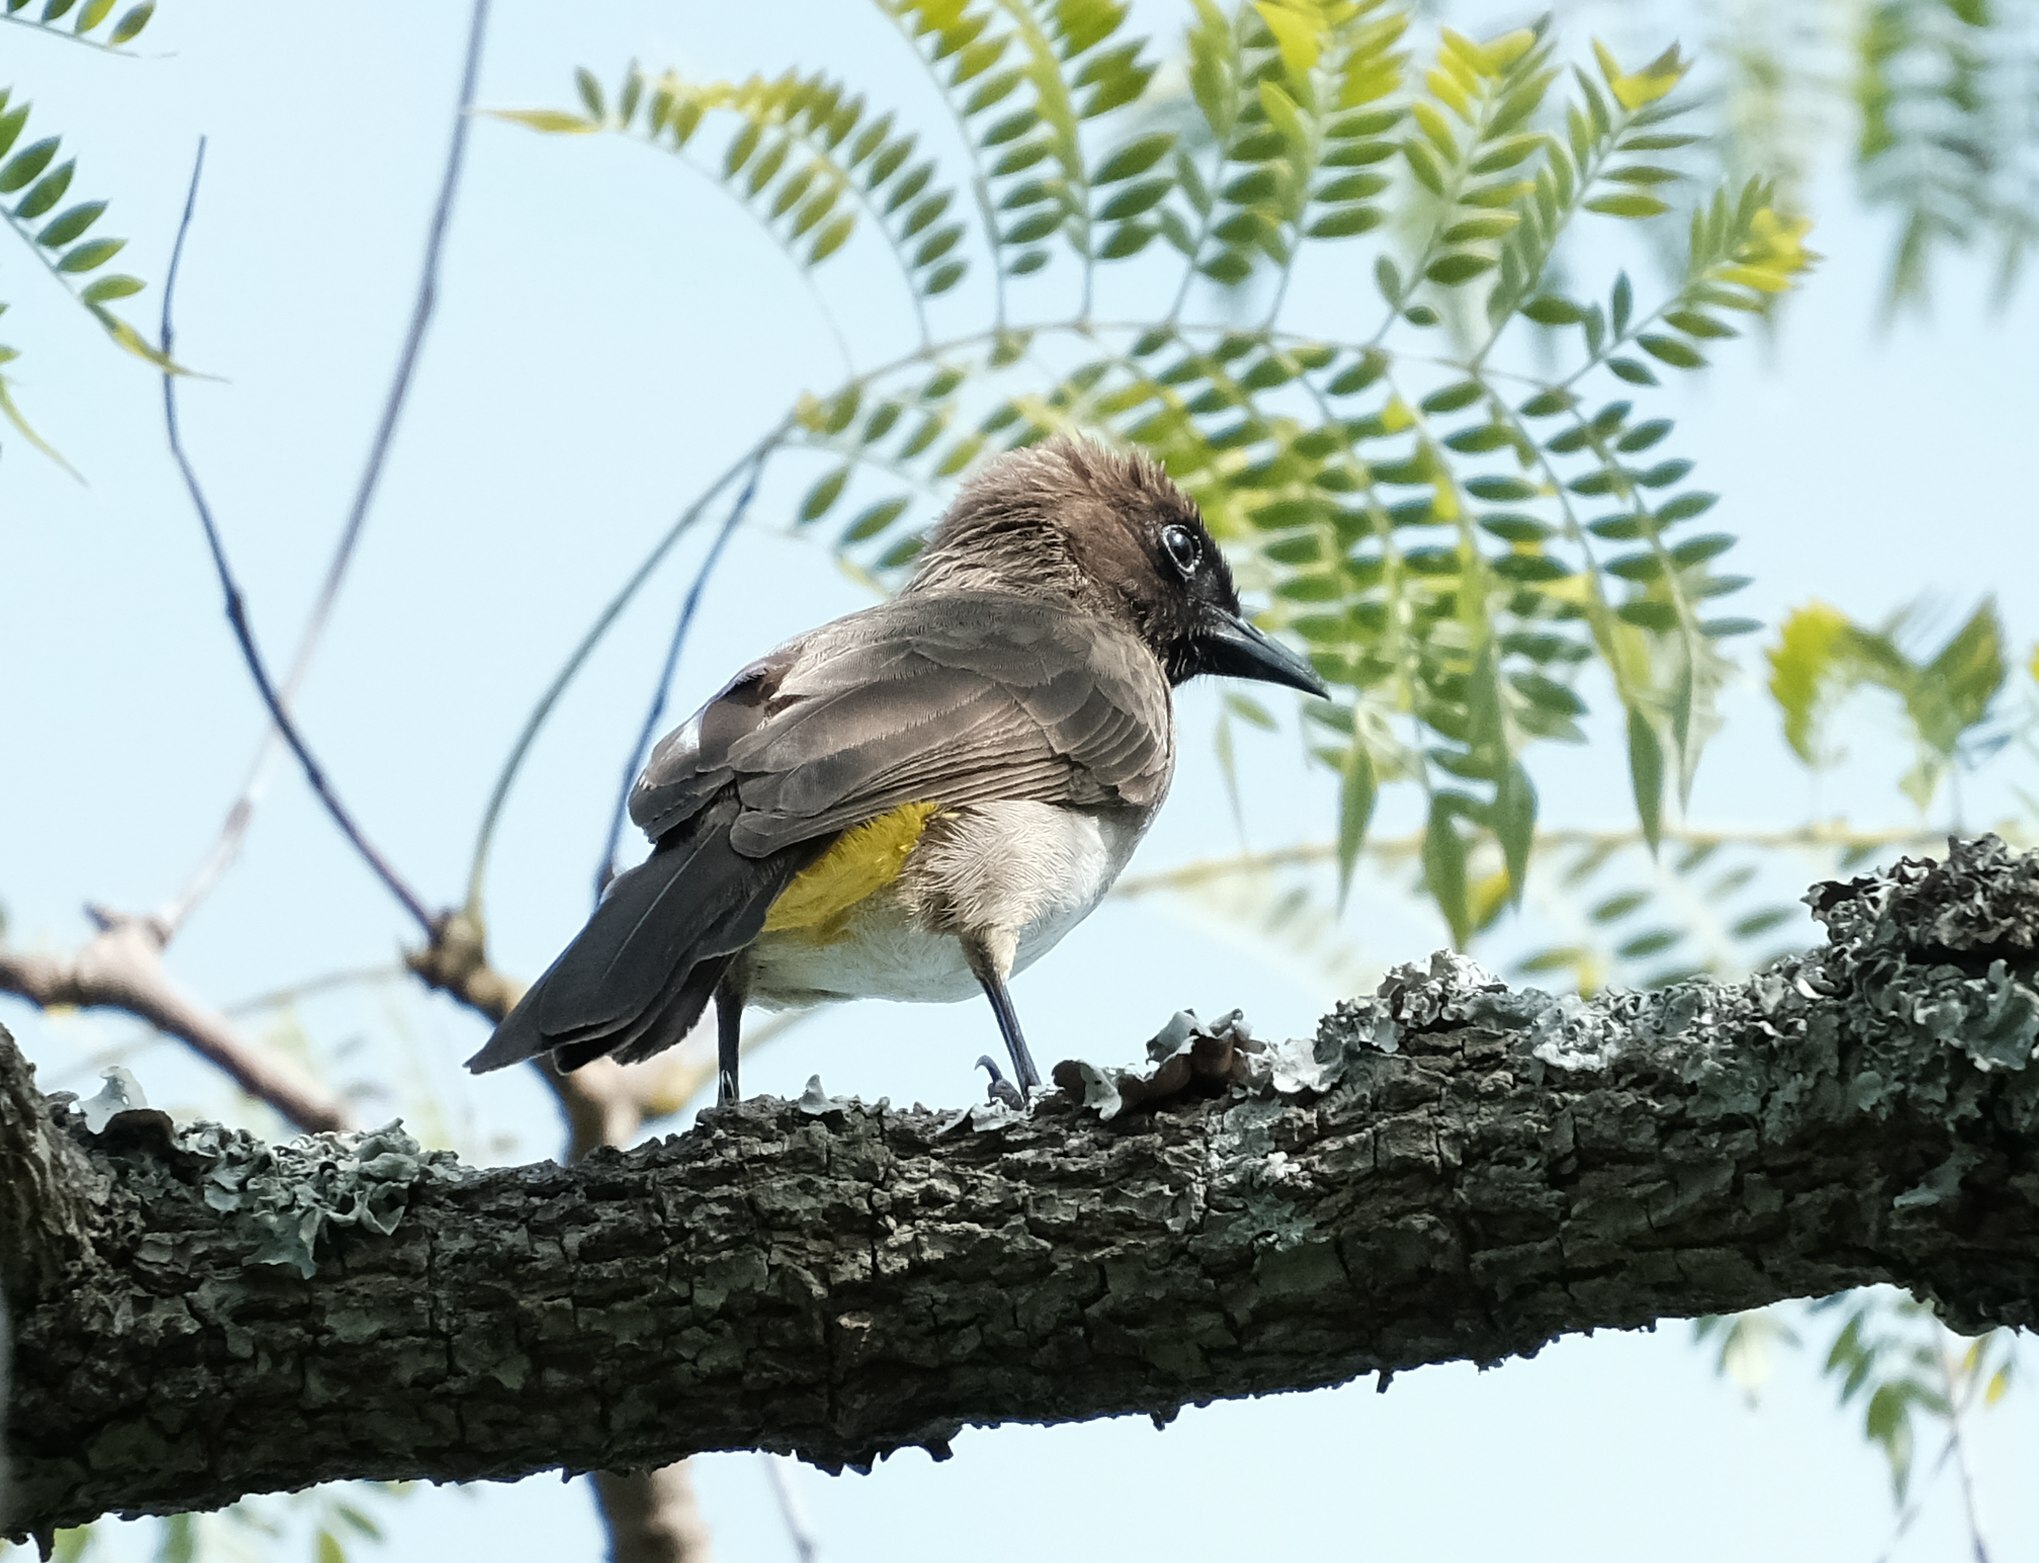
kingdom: Animalia
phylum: Chordata
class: Aves
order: Passeriformes
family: Pycnonotidae
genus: Pycnonotus
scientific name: Pycnonotus barbatus
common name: Common bulbul
